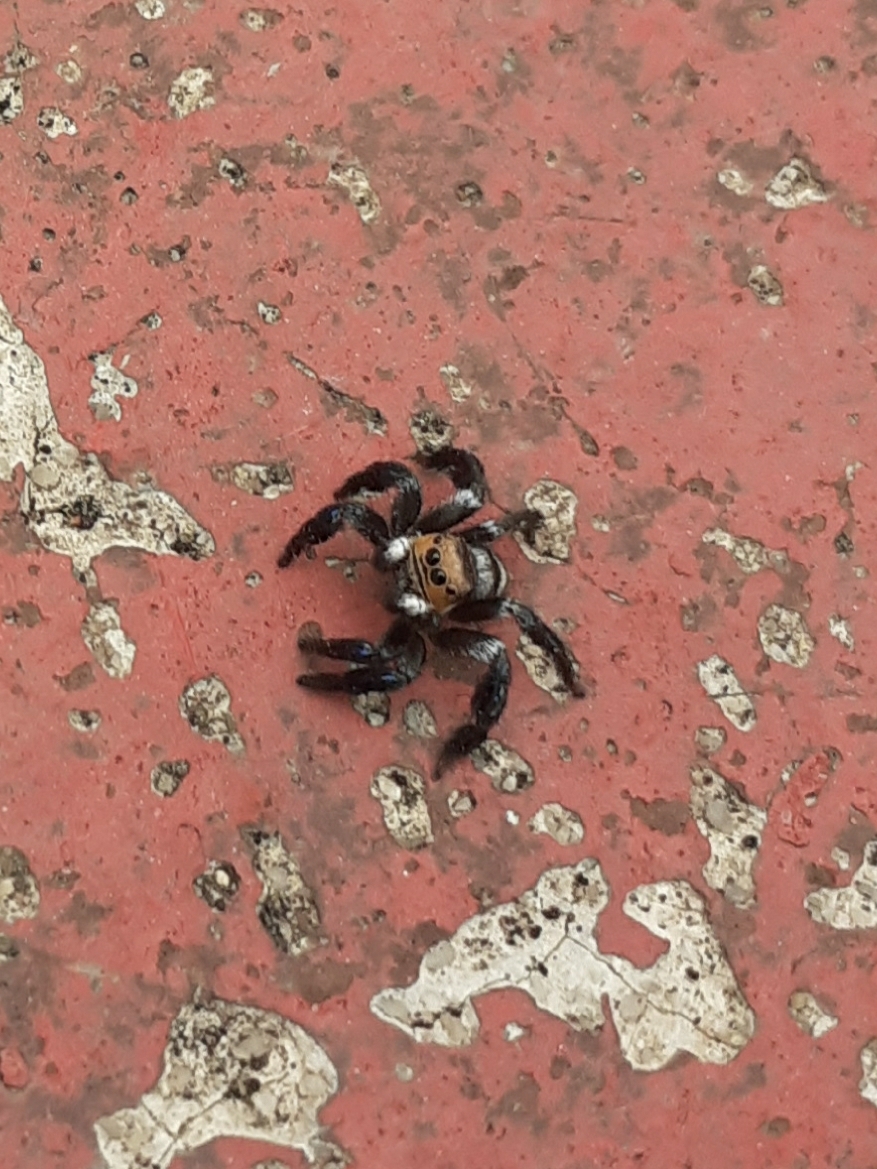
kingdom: Animalia
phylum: Arthropoda
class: Arachnida
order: Araneae
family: Salticidae
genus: Corythalia
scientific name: Corythalia argentinensis
